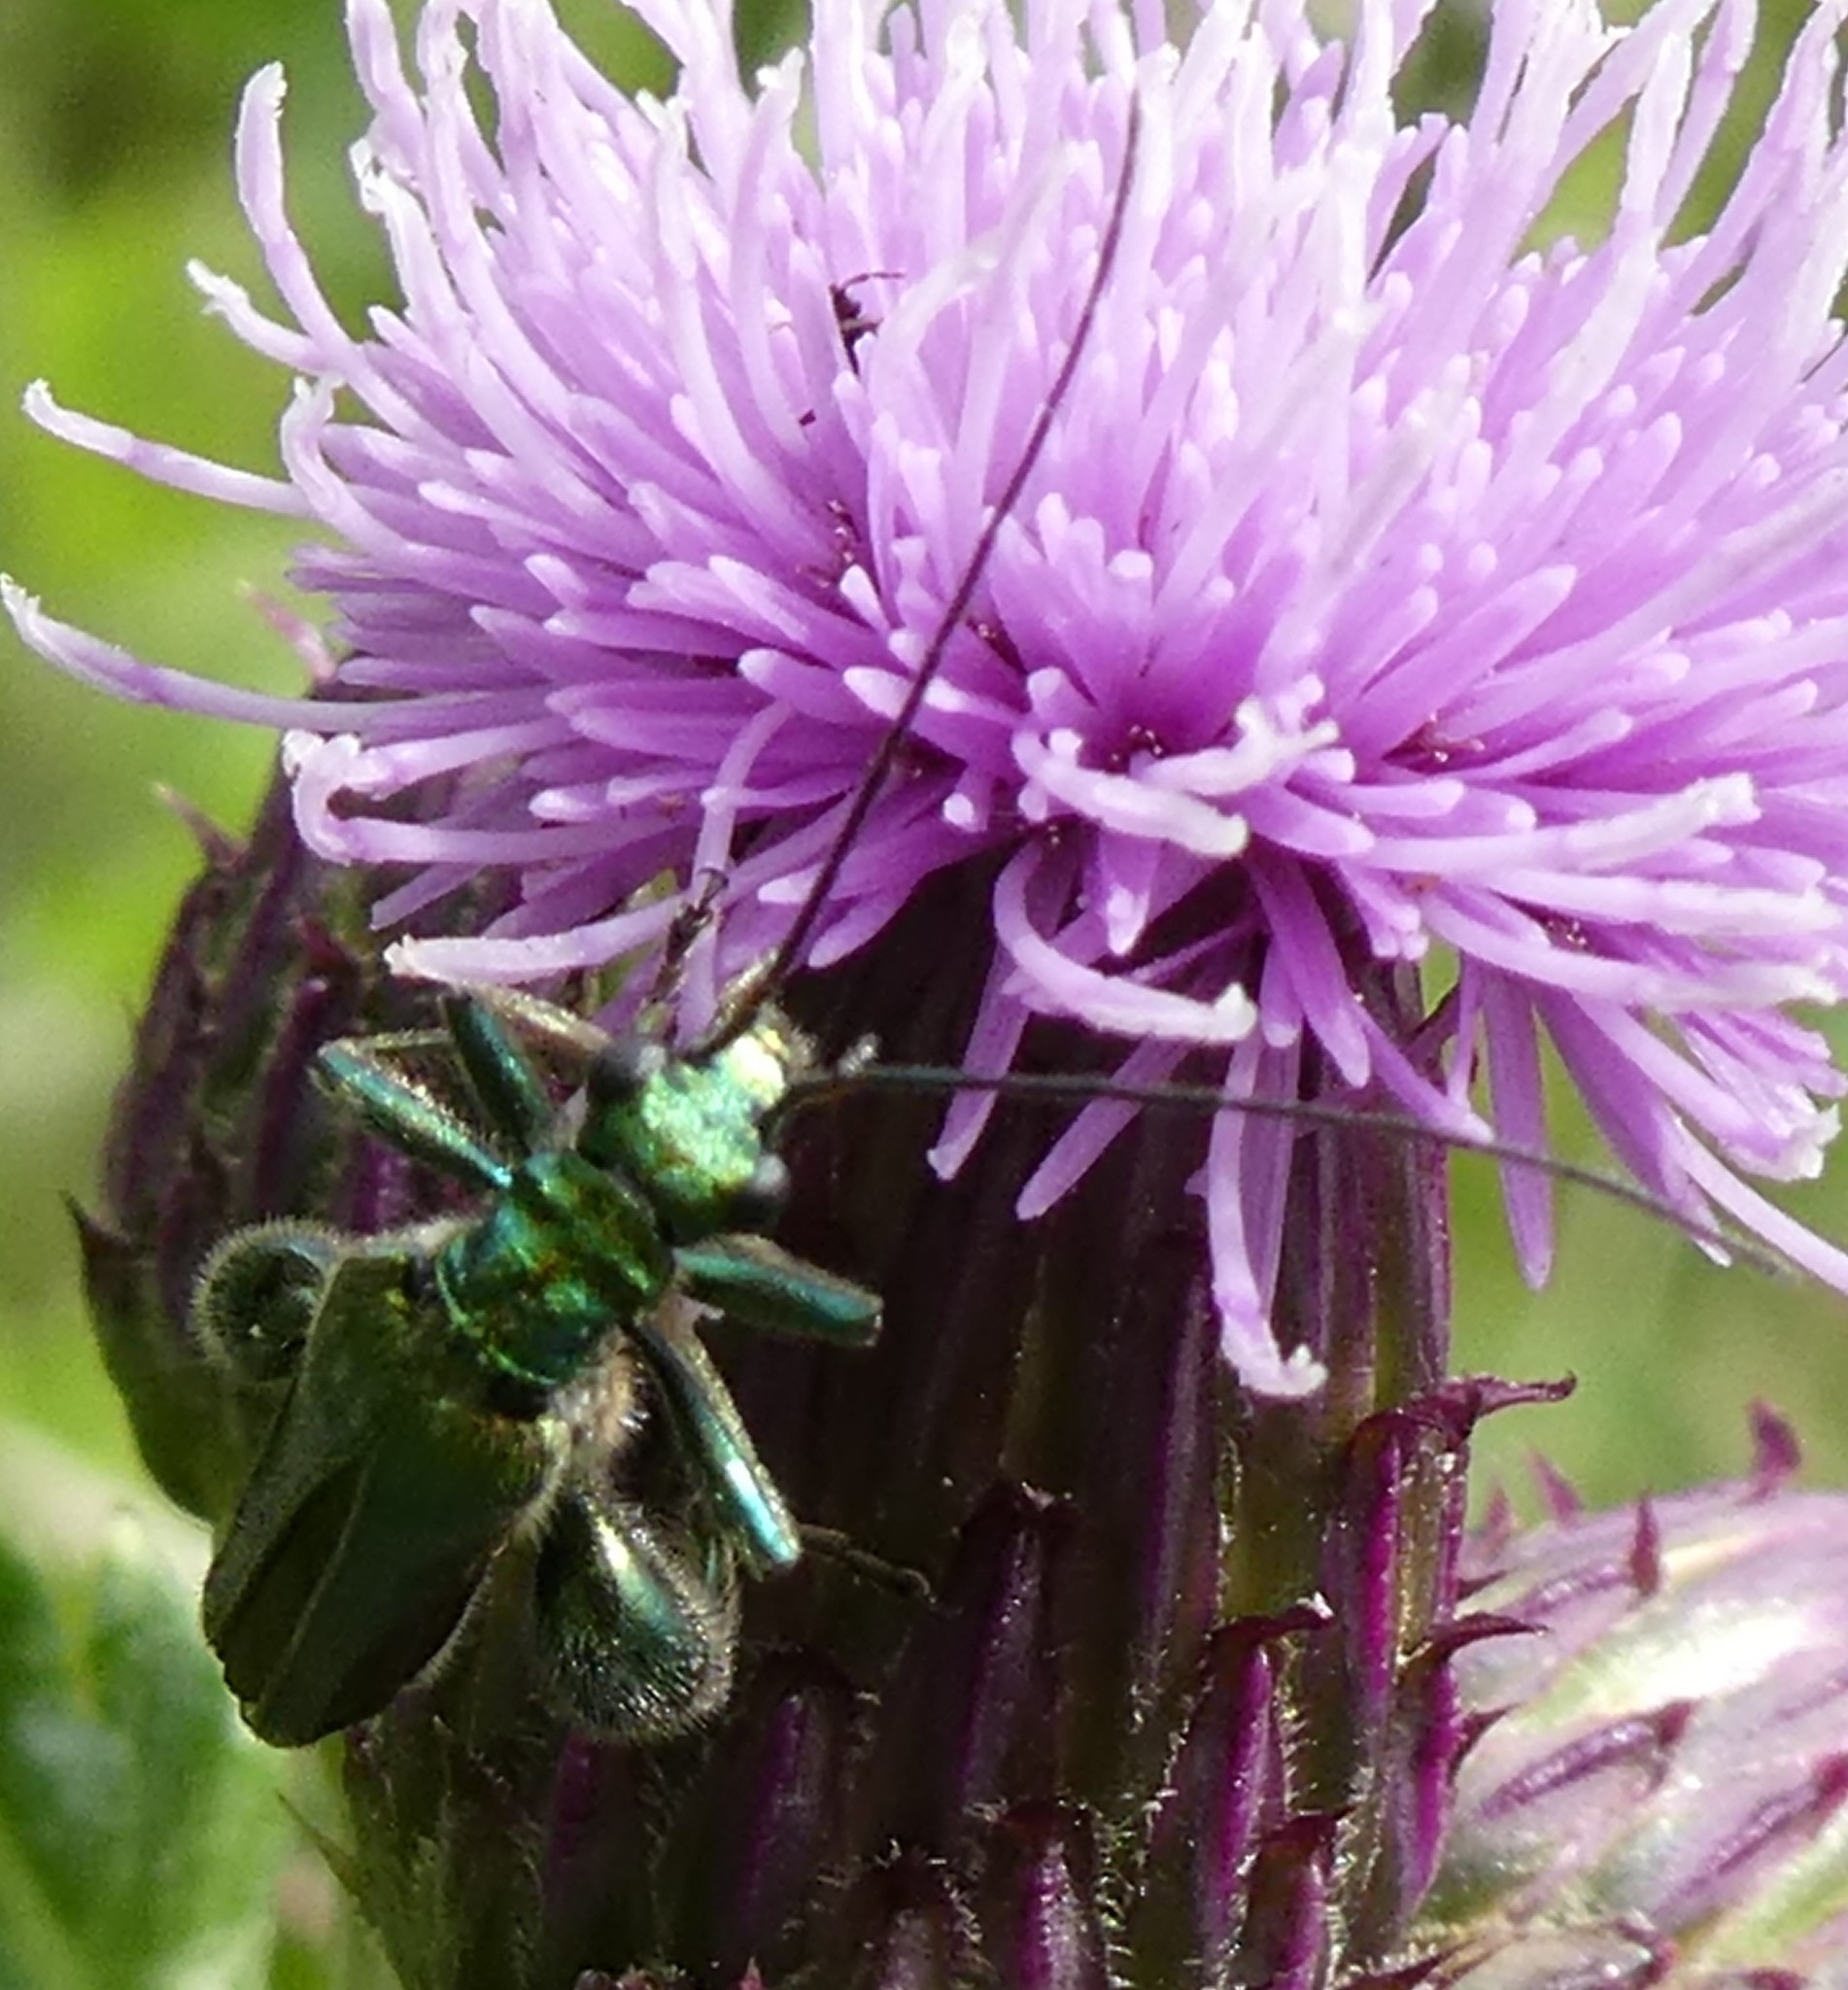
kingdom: Animalia
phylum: Arthropoda
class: Insecta
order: Coleoptera
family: Oedemeridae
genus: Oedemera
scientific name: Oedemera nobilis
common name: Swollen-thighed beetle
